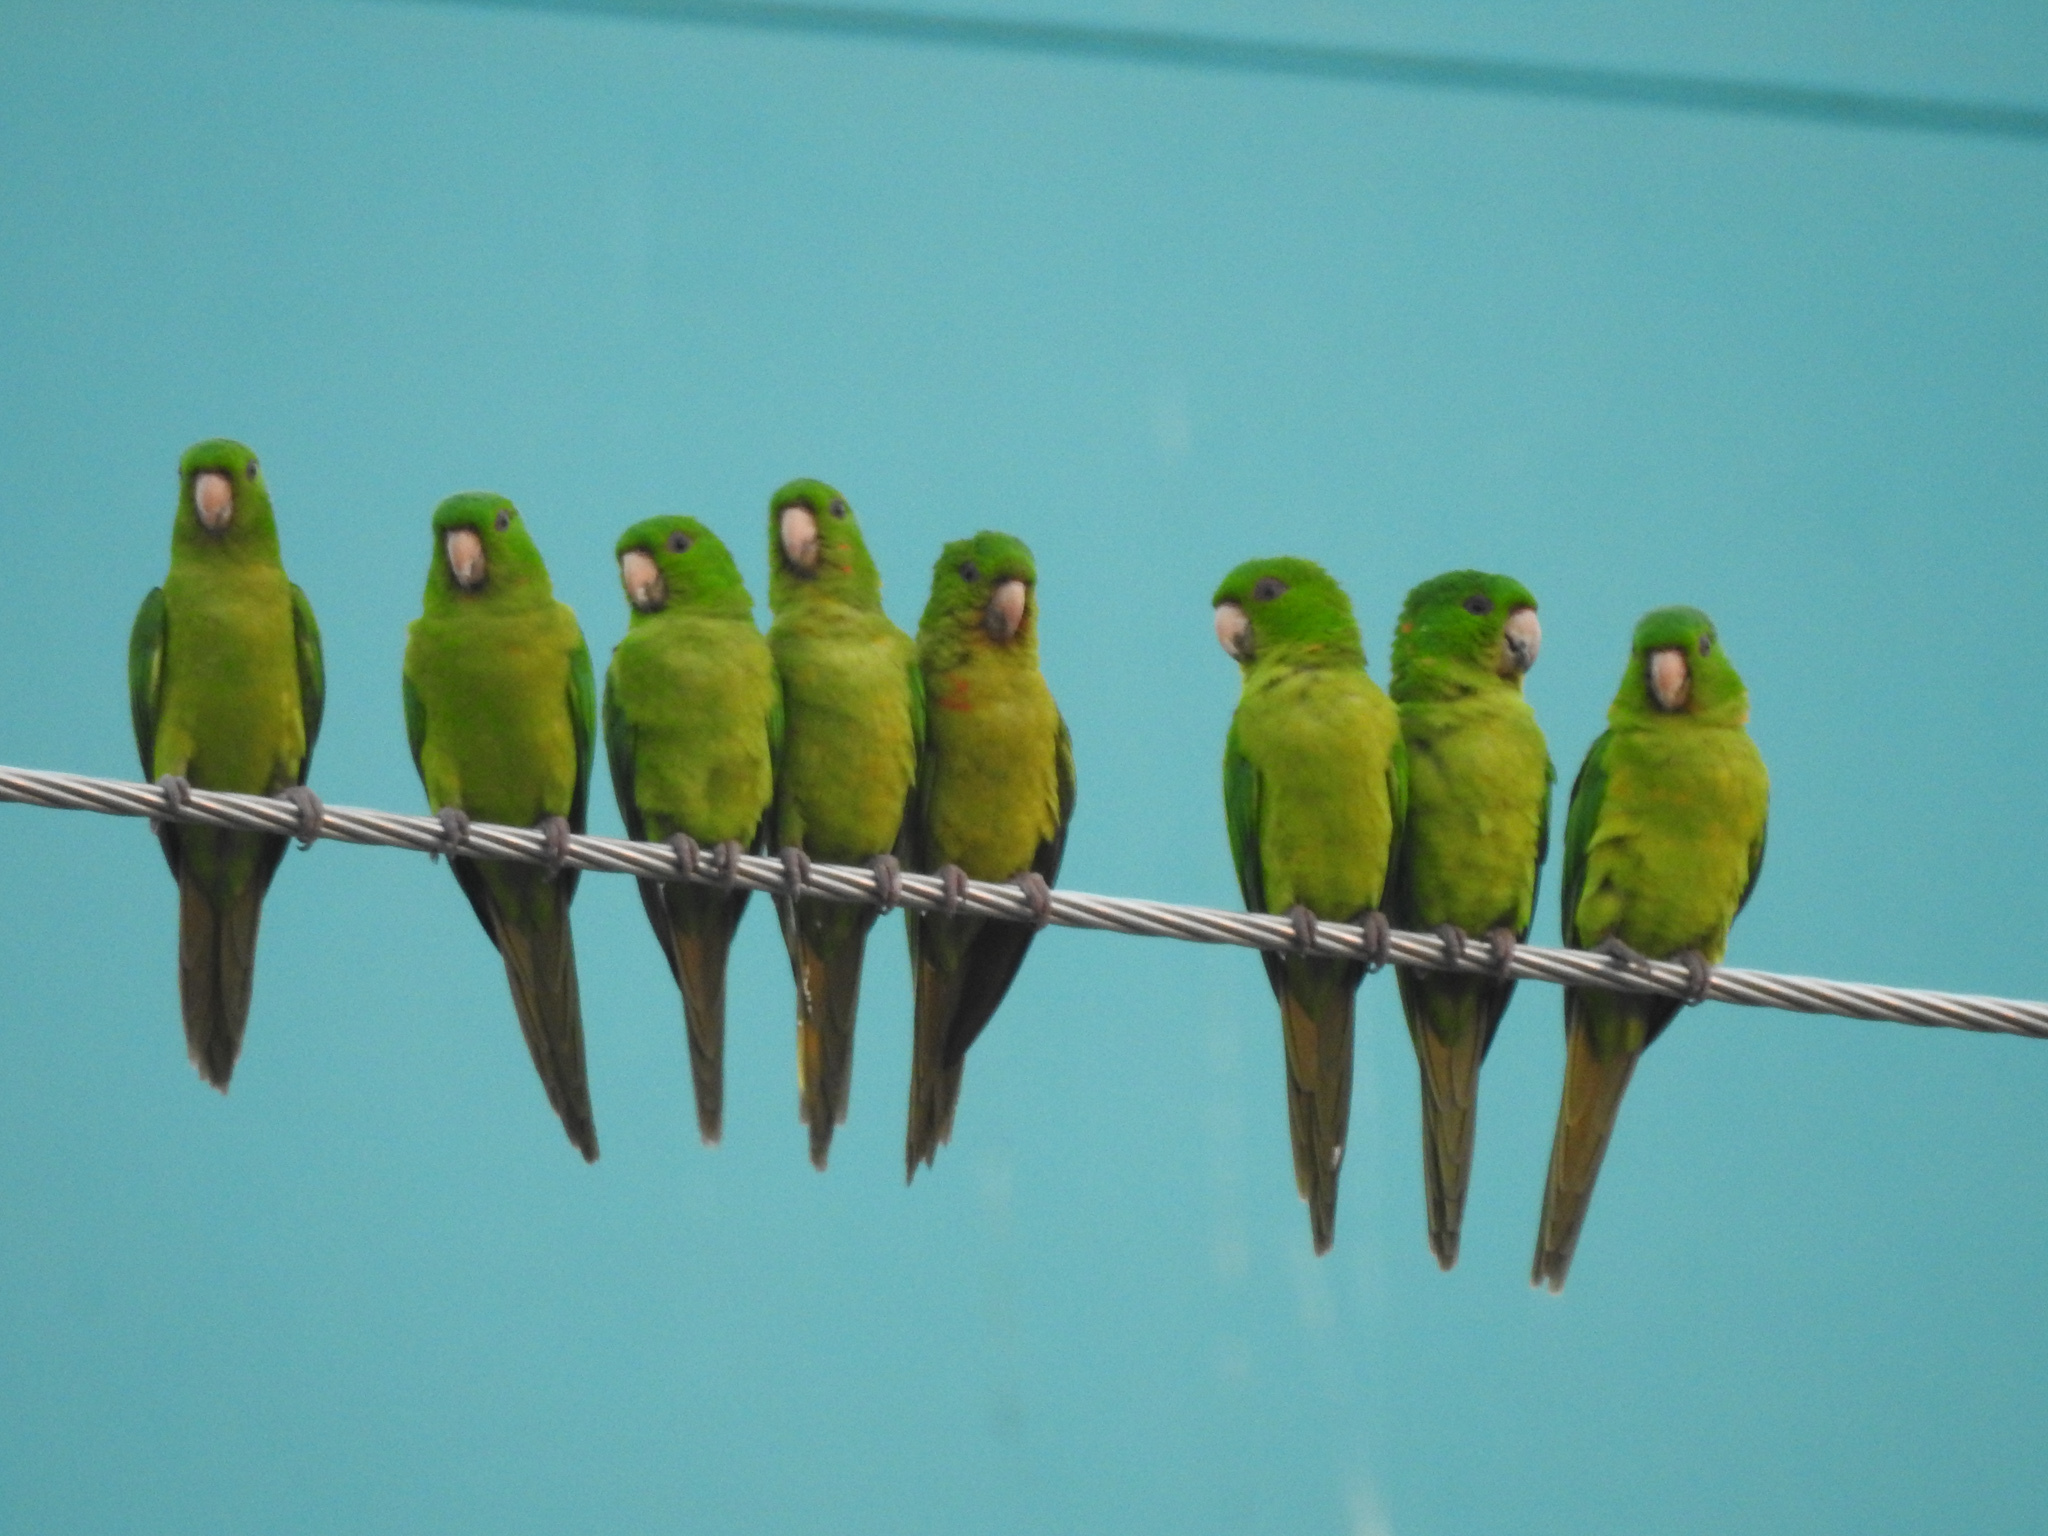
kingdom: Animalia
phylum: Chordata
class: Aves
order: Psittaciformes
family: Psittacidae
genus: Aratinga
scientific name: Aratinga holochlora
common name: Green parakeet
